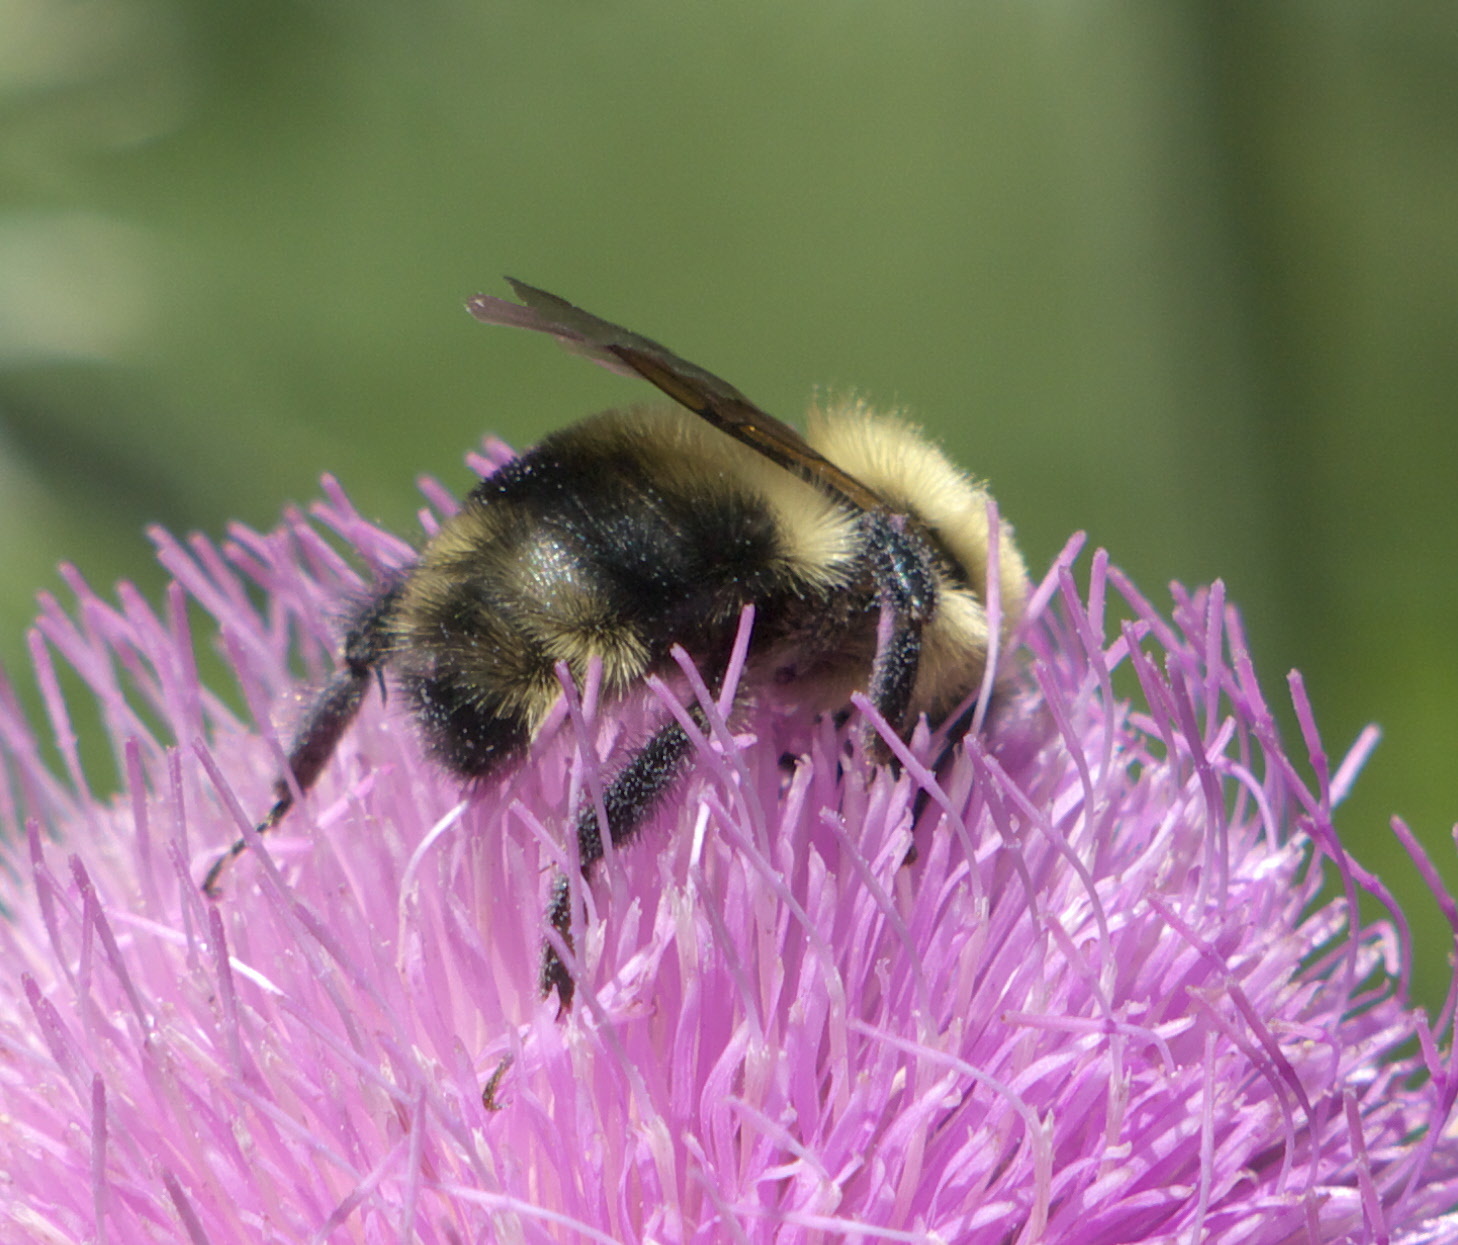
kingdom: Animalia
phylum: Arthropoda
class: Insecta
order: Hymenoptera
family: Apidae
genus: Bombus
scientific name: Bombus bimaculatus
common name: Two-spotted bumble bee
